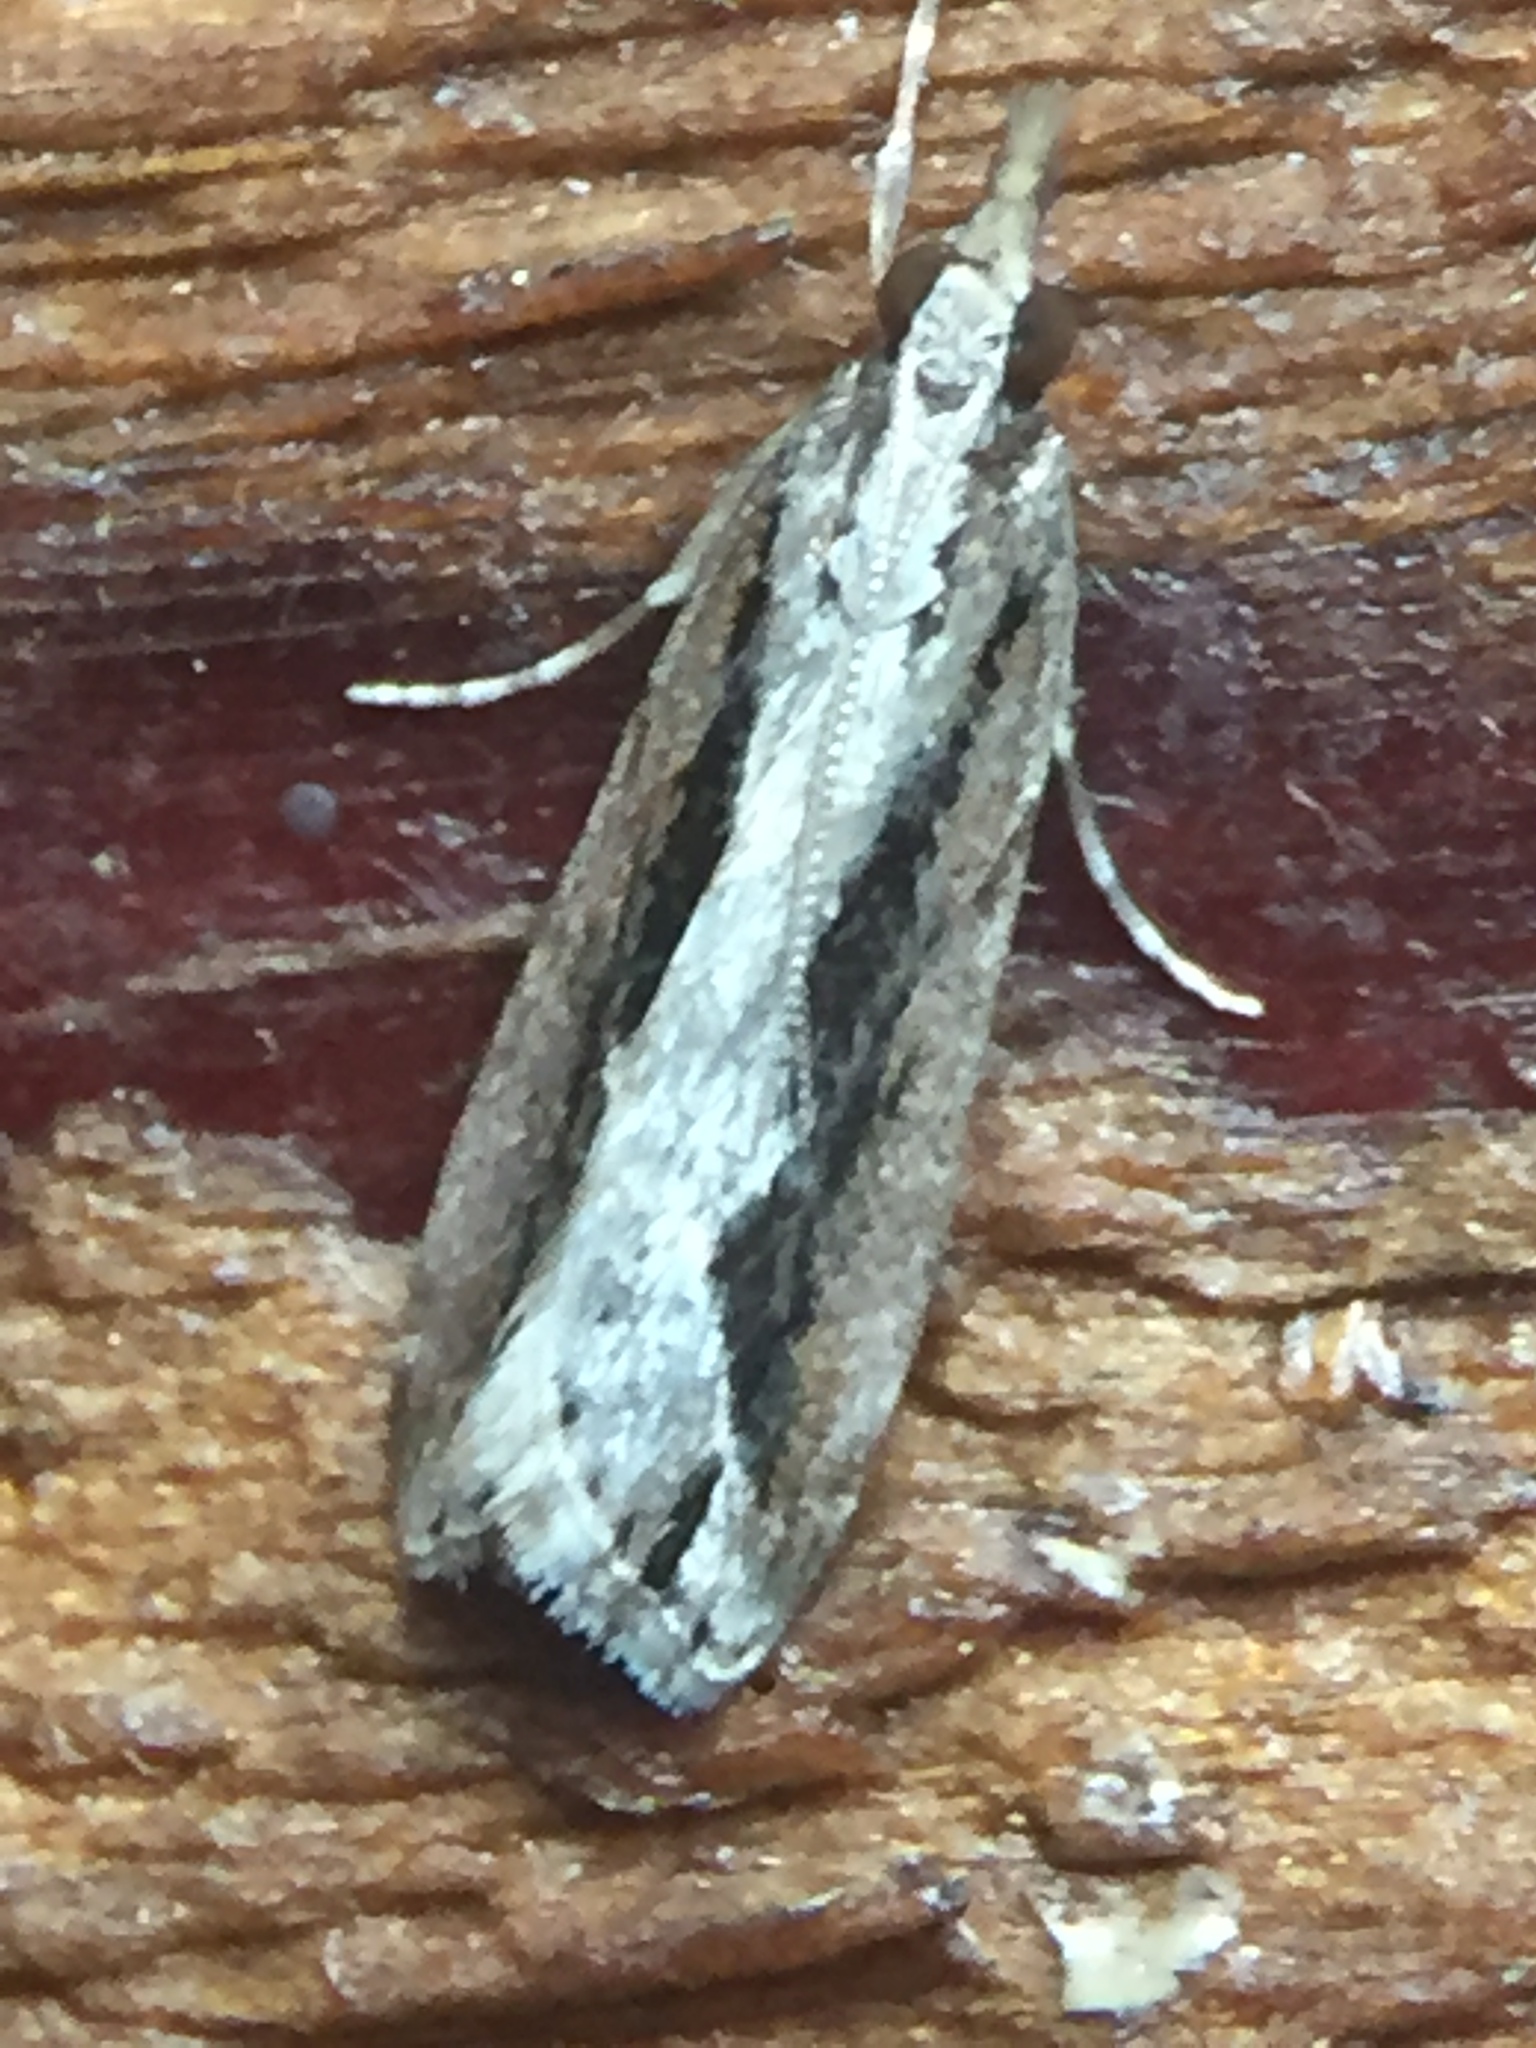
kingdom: Animalia
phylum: Arthropoda
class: Insecta
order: Lepidoptera
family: Crambidae
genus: Eudonia
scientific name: Eudonia steropaea
